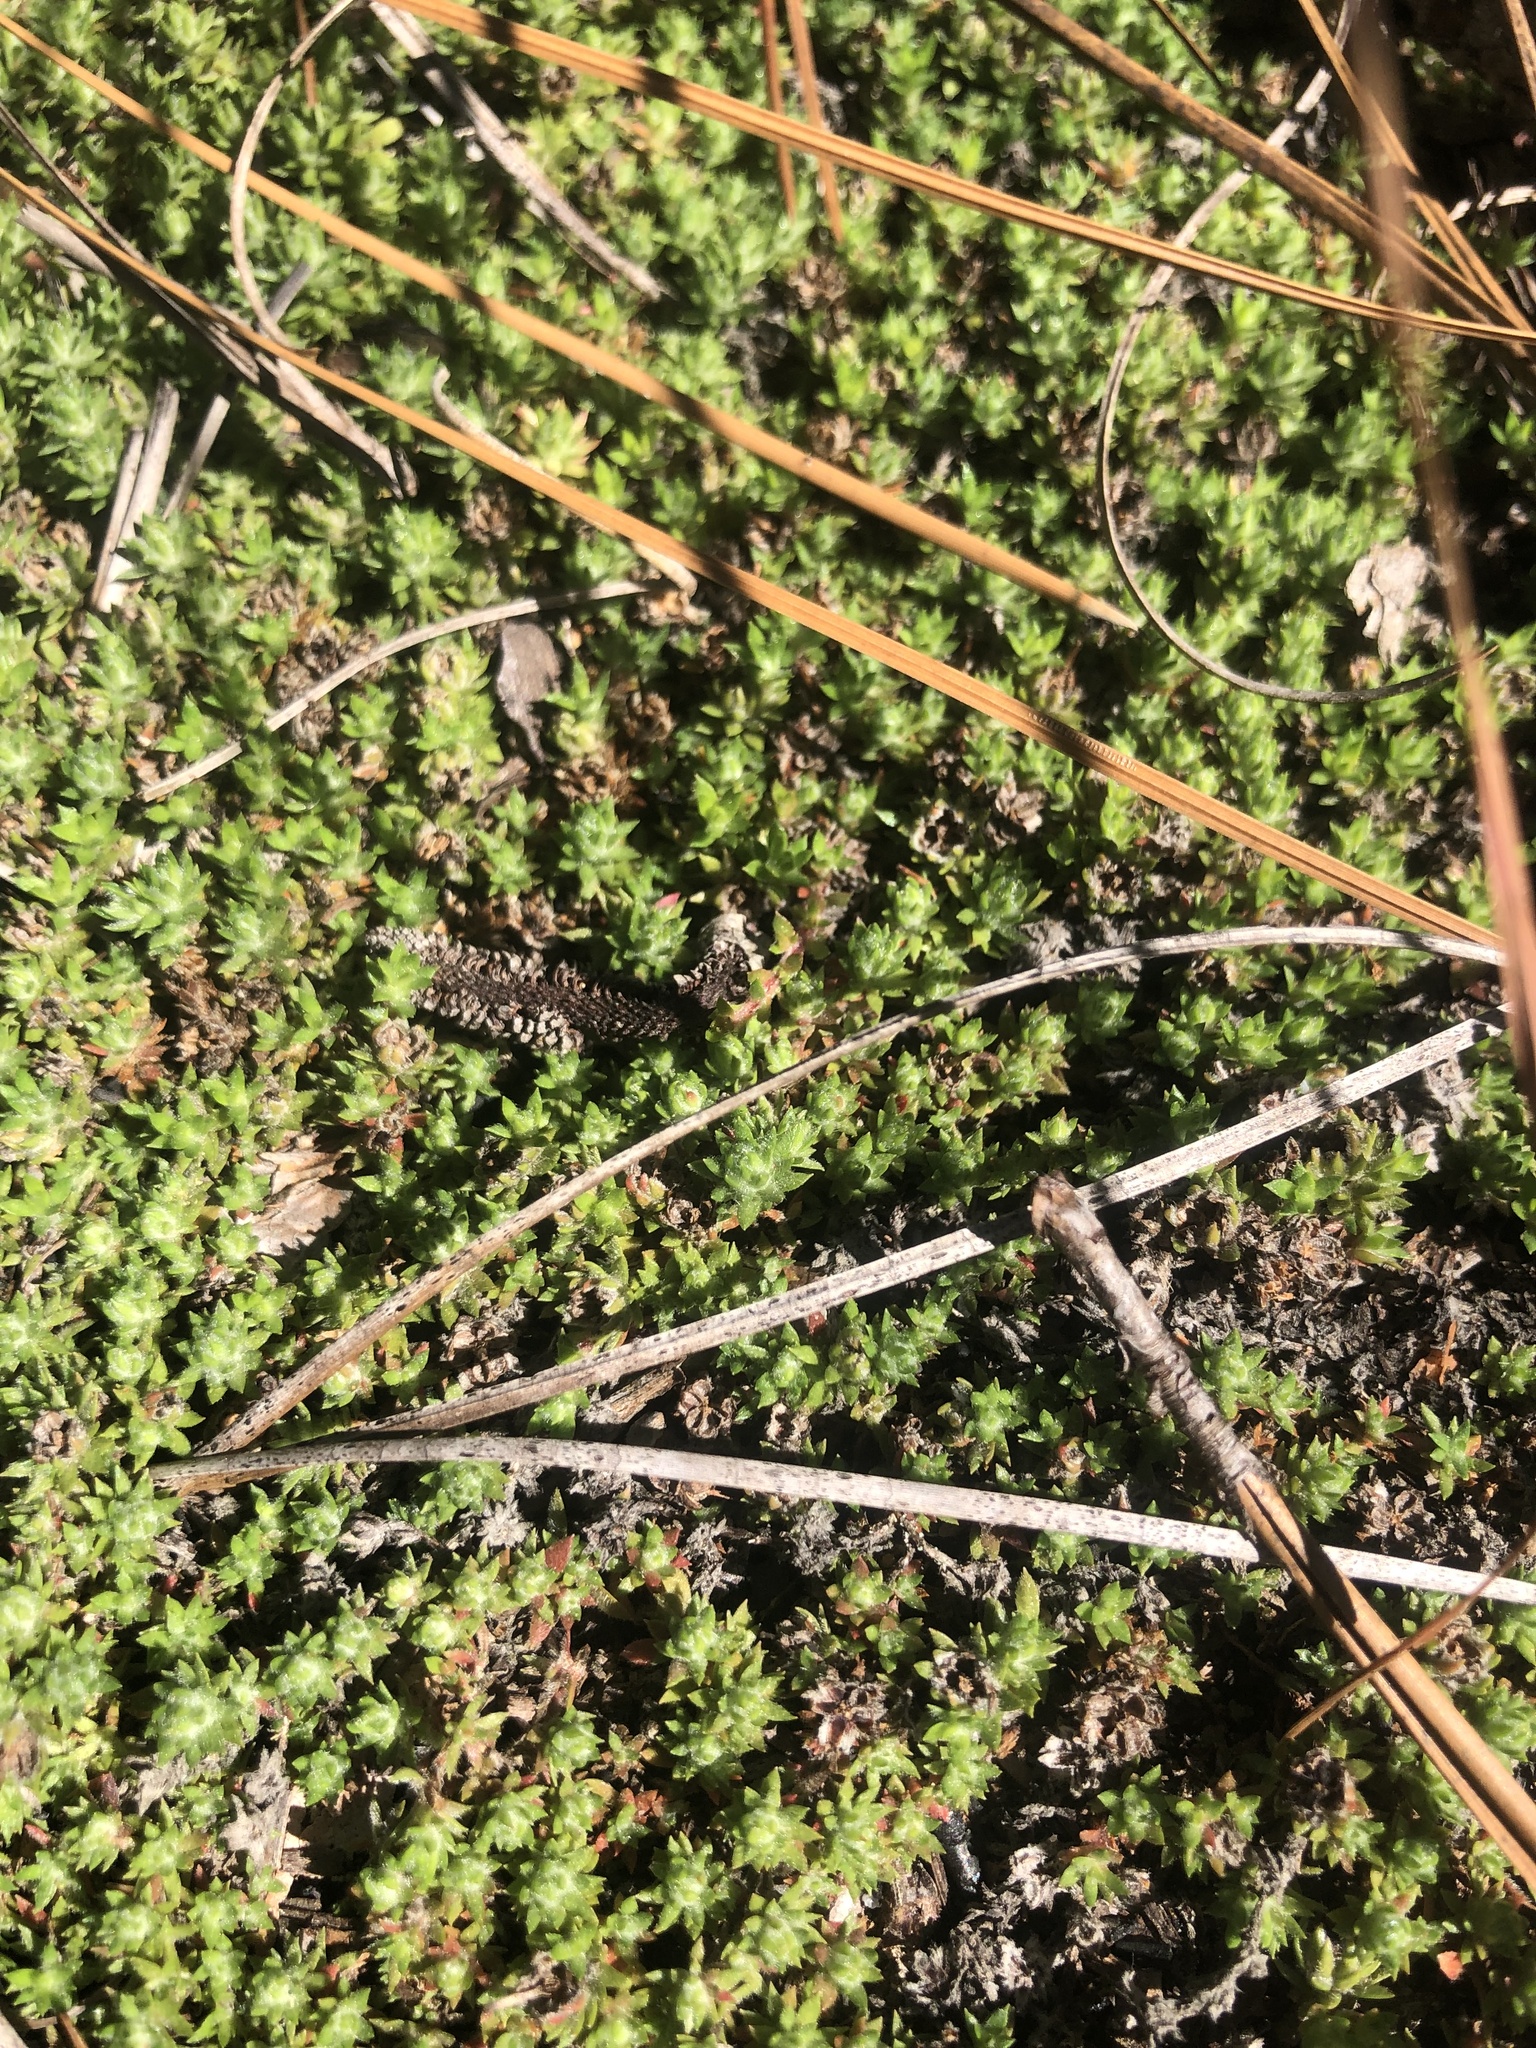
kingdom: Plantae
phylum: Tracheophyta
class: Magnoliopsida
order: Ericales
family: Diapensiaceae
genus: Pyxidanthera
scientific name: Pyxidanthera brevifolia
